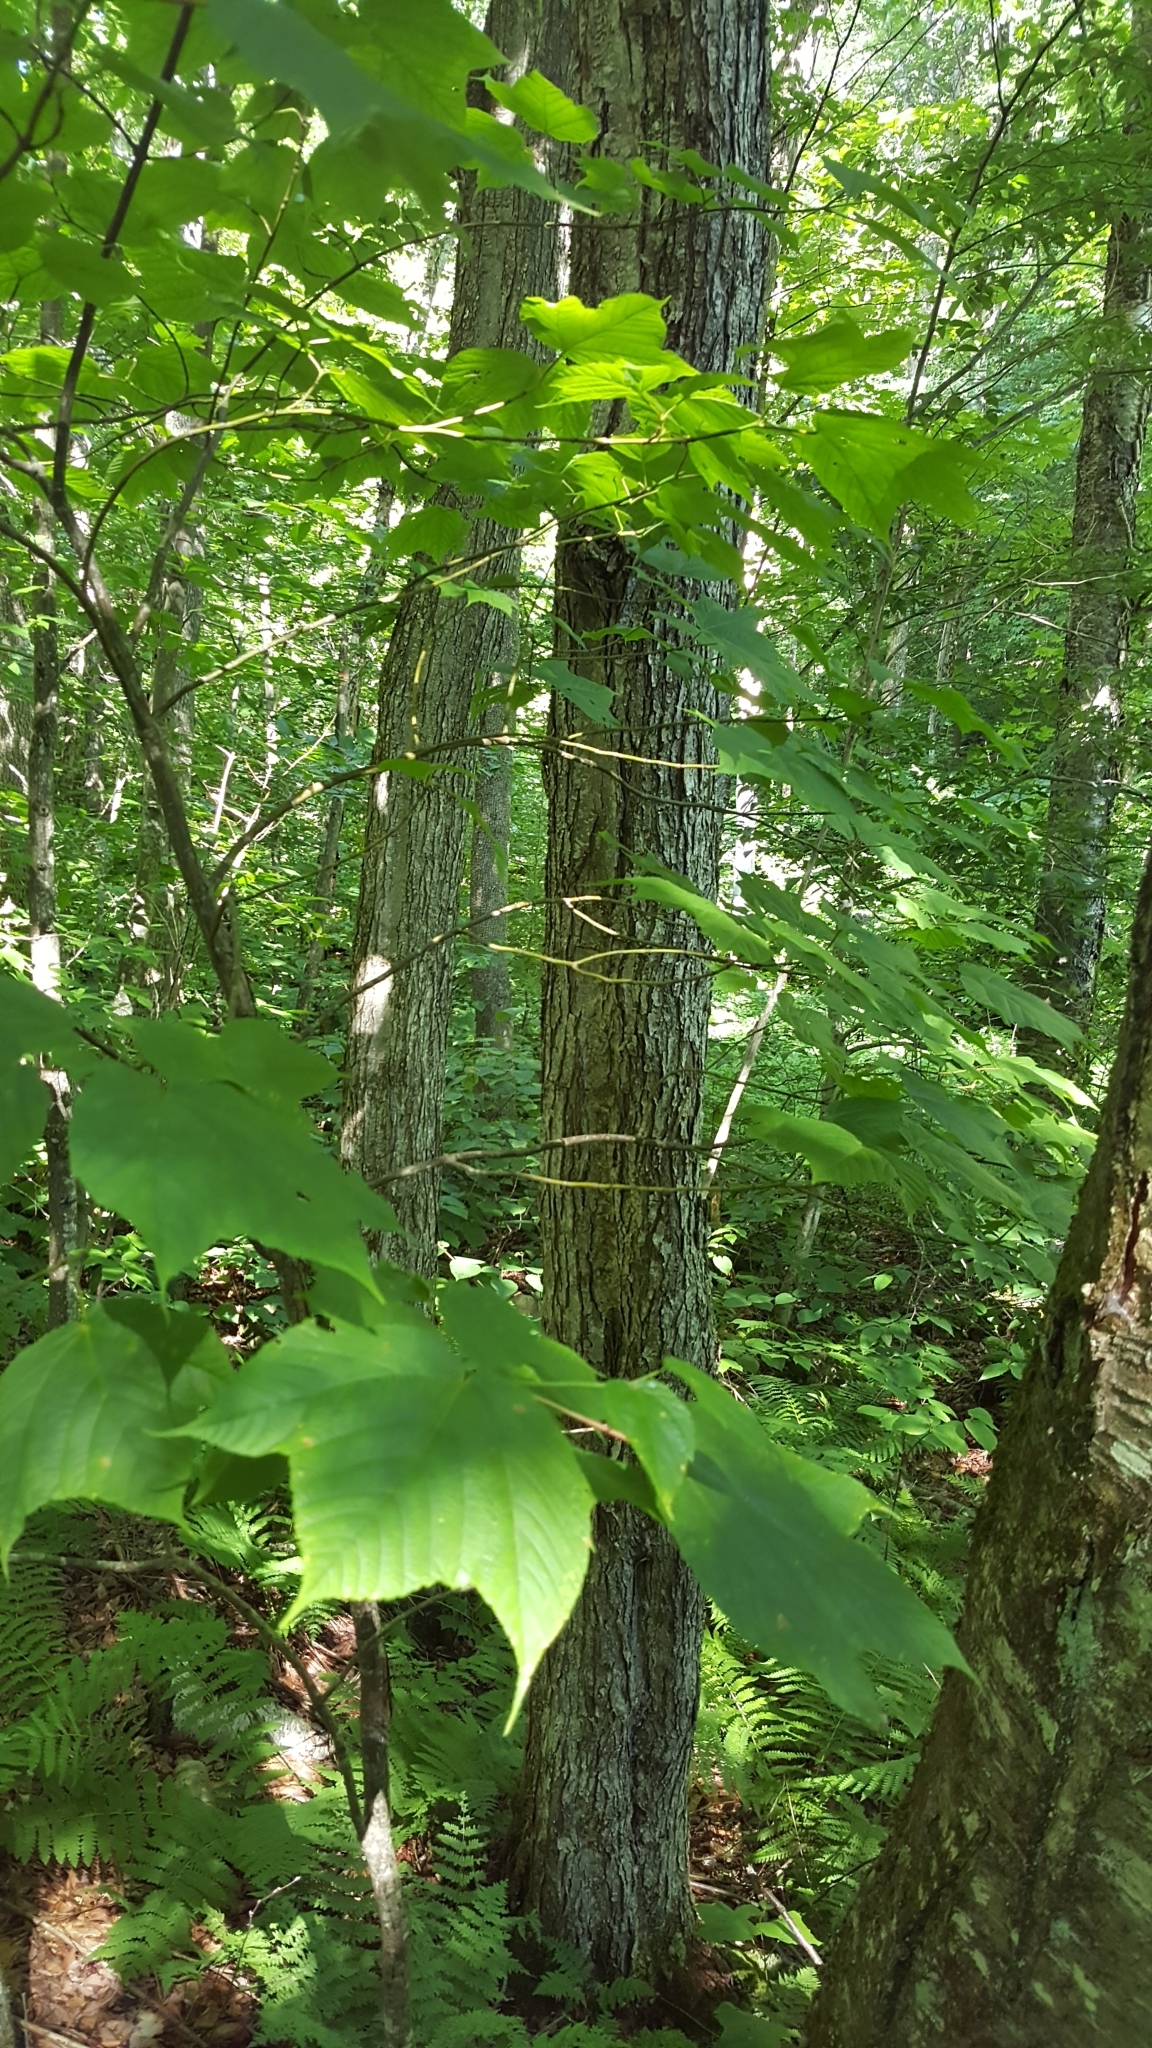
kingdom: Plantae
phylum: Tracheophyta
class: Magnoliopsida
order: Sapindales
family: Sapindaceae
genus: Acer
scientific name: Acer pensylvanicum
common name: Moosewood
